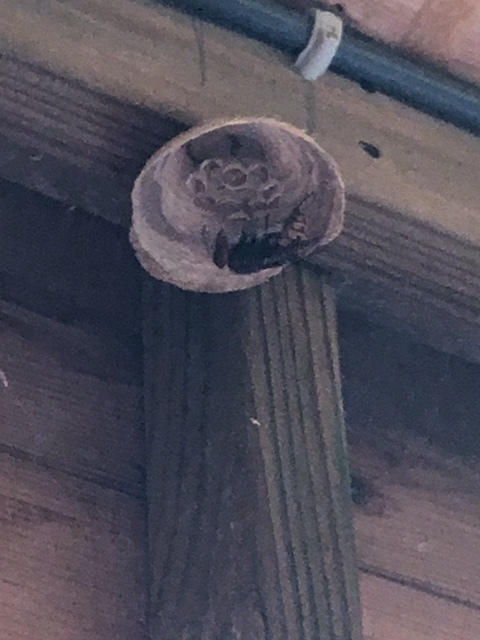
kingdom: Animalia
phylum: Arthropoda
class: Insecta
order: Hymenoptera
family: Vespidae
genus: Vespa
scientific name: Vespa crabro
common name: Hornet
